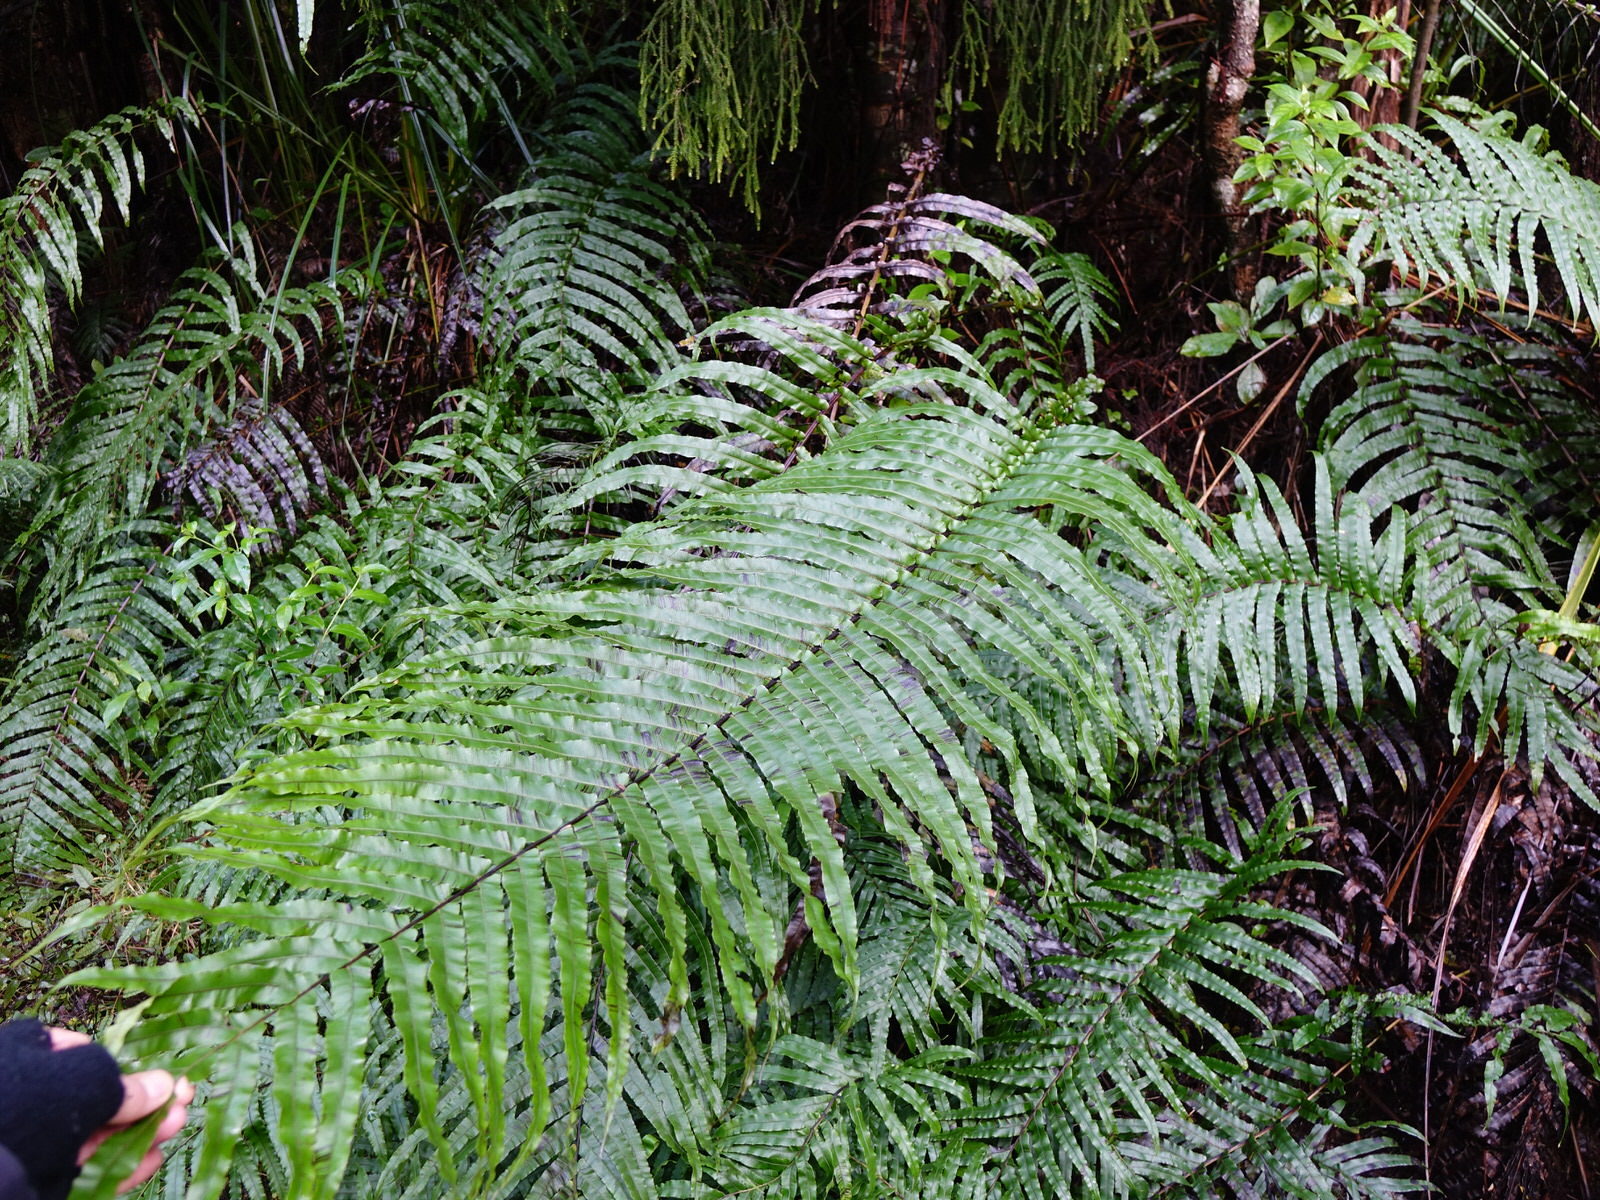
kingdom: Plantae
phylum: Tracheophyta
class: Polypodiopsida
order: Polypodiales
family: Blechnaceae
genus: Parablechnum
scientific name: Parablechnum novae-zelandiae
